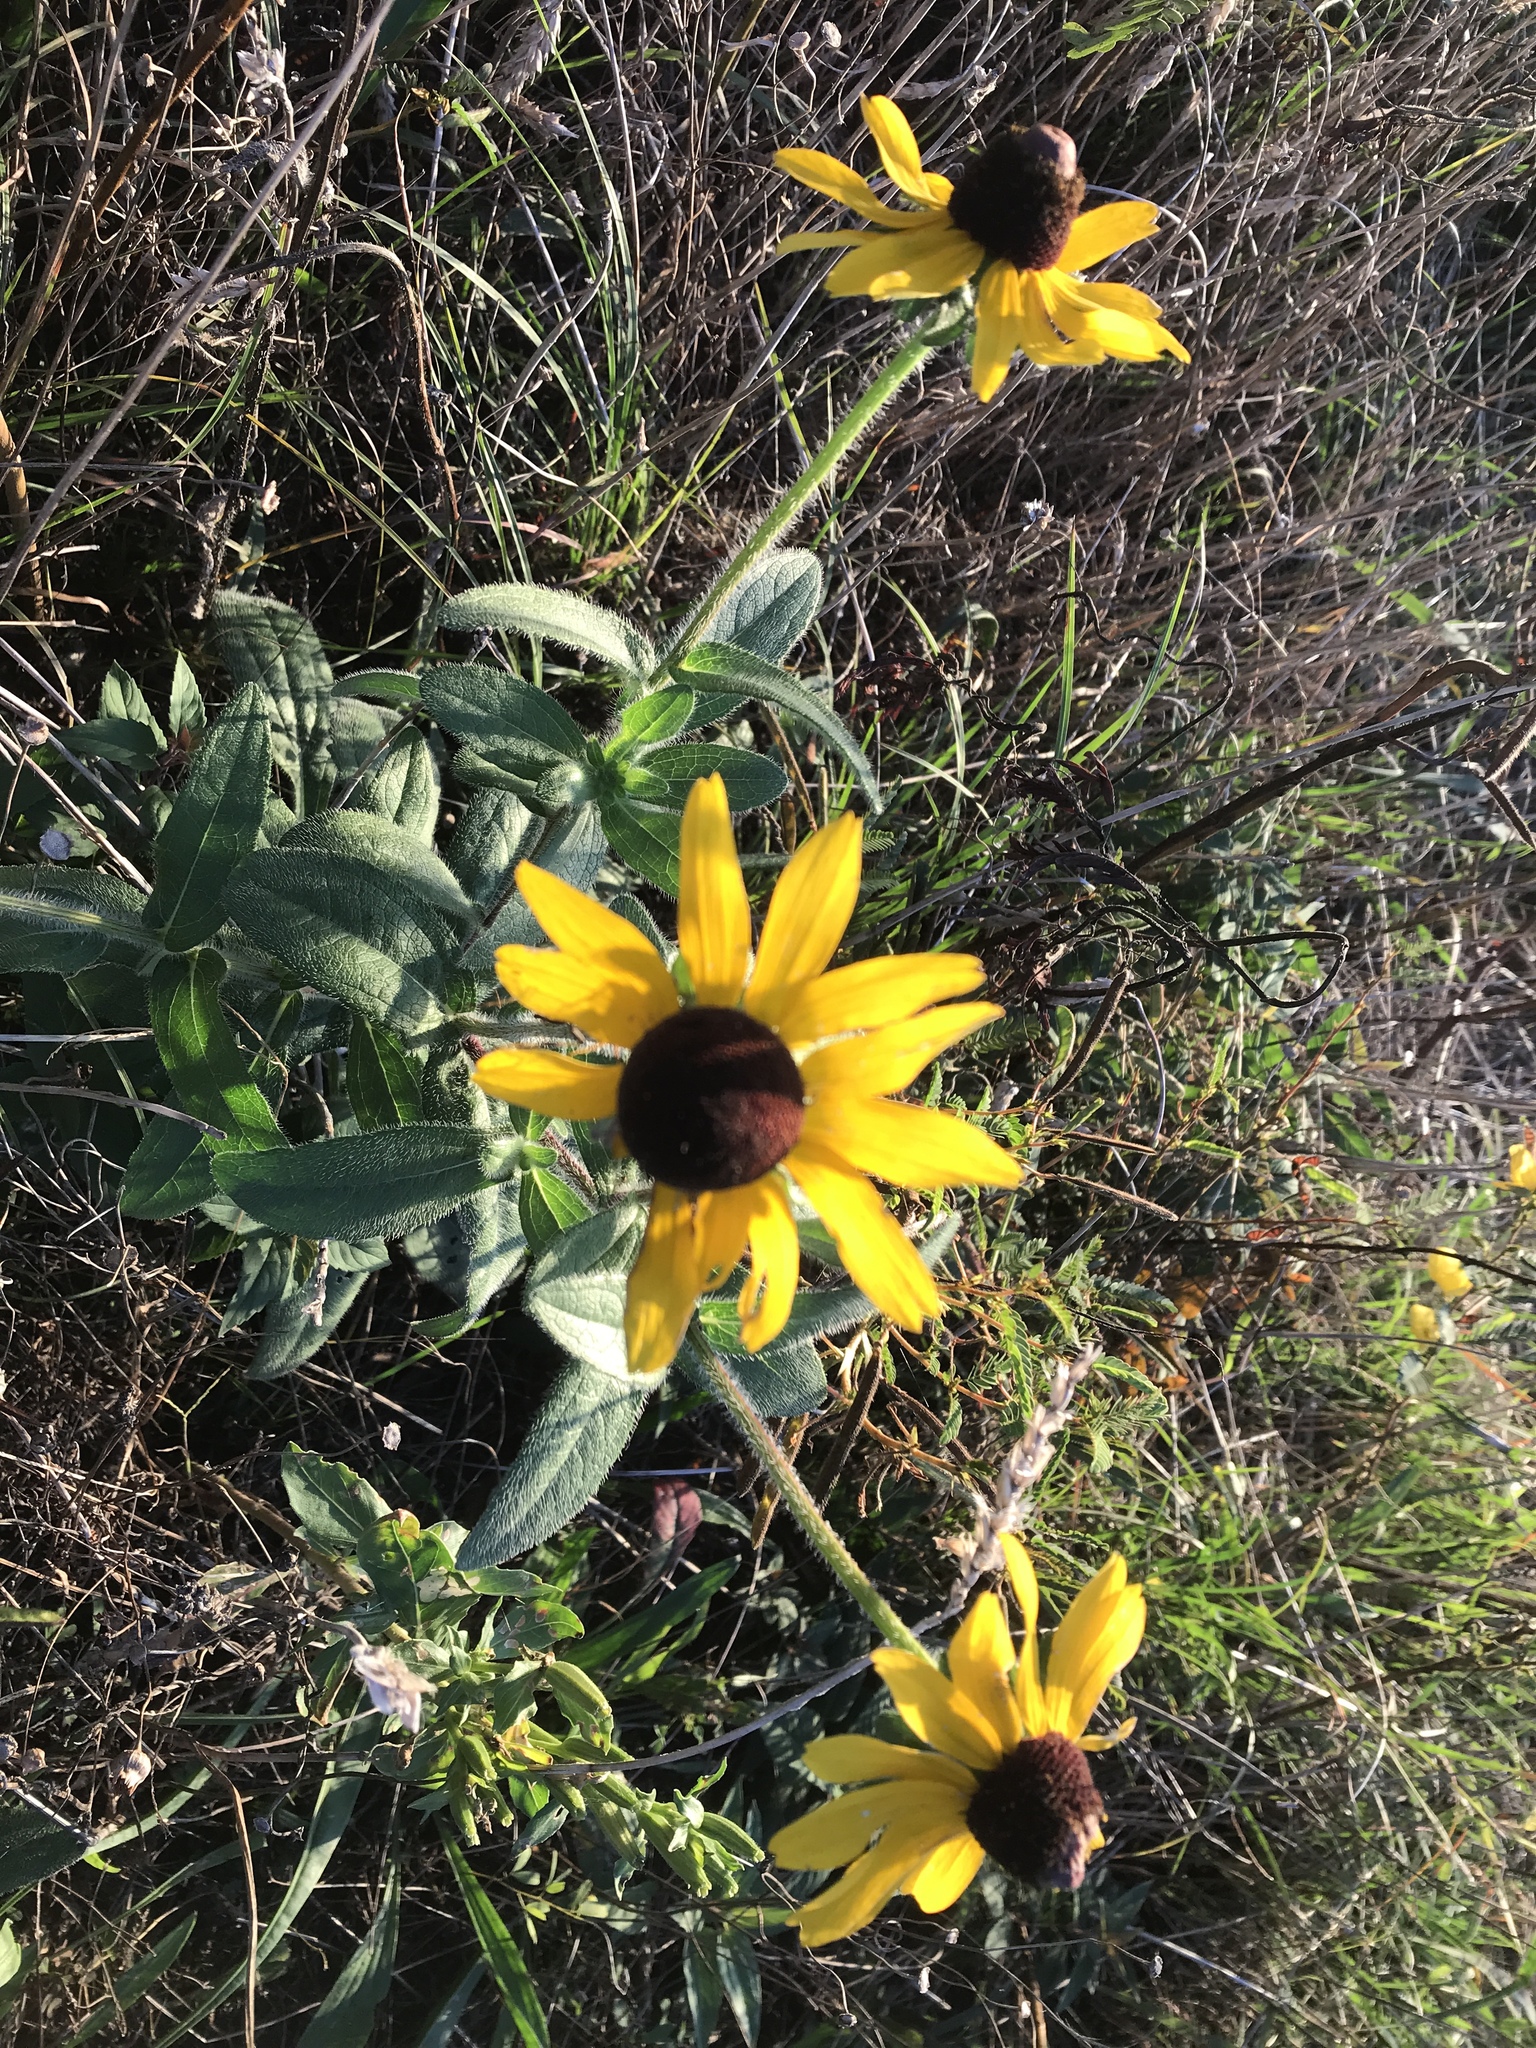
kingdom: Plantae
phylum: Tracheophyta
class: Magnoliopsida
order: Asterales
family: Asteraceae
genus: Rudbeckia
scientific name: Rudbeckia hirta
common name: Black-eyed-susan
